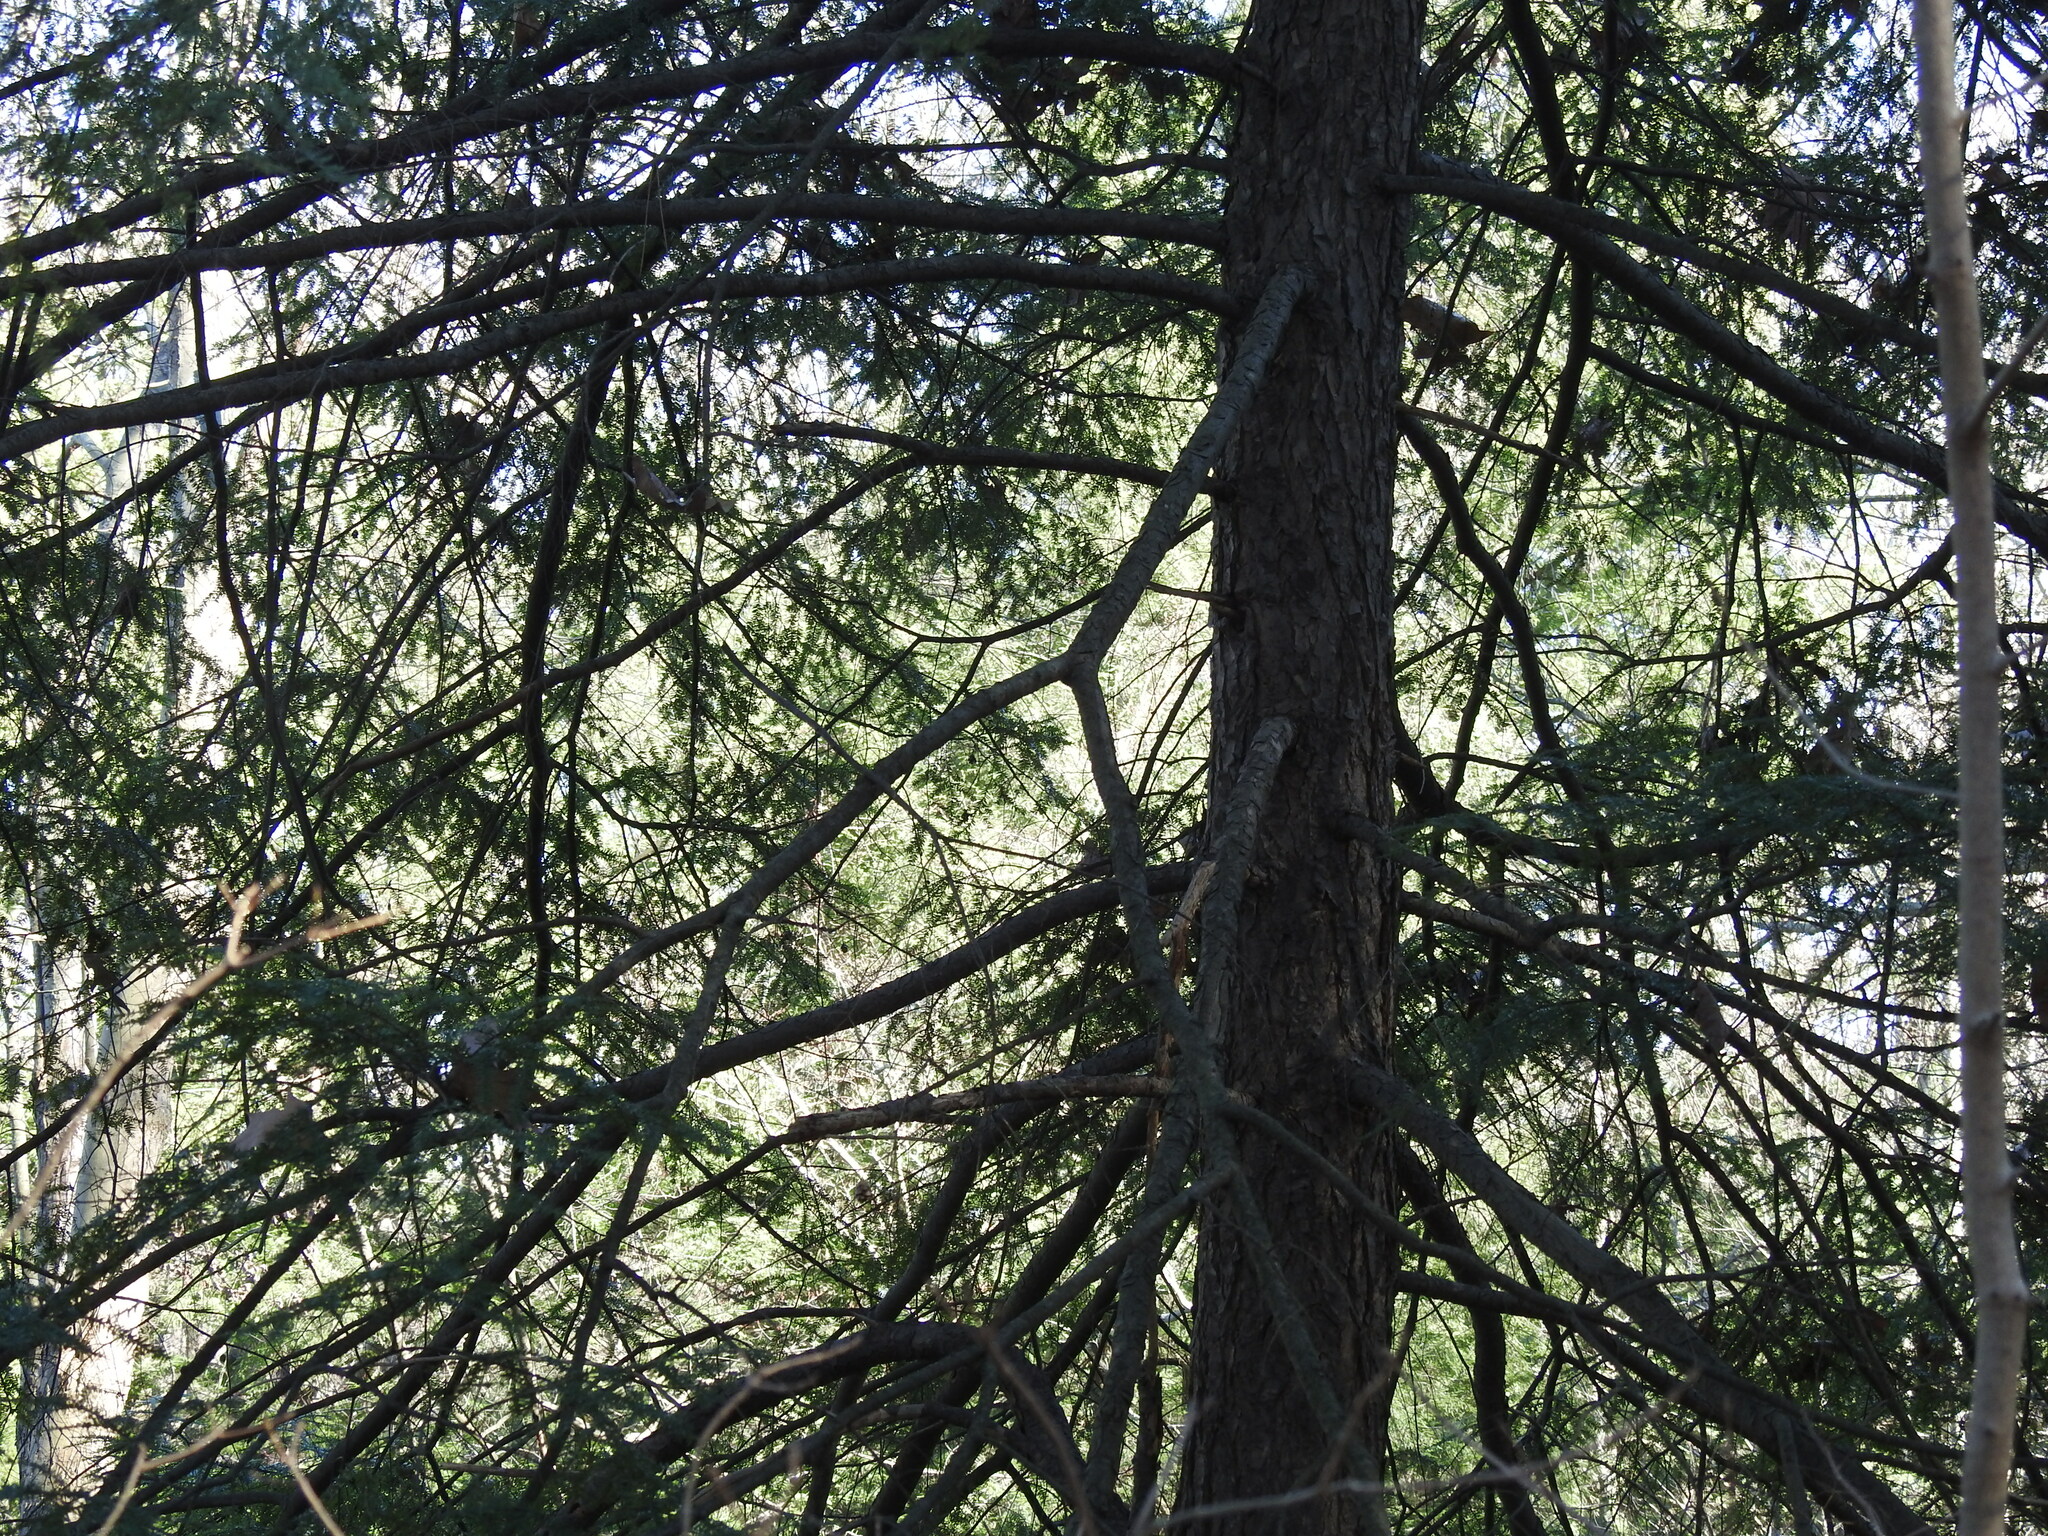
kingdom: Plantae
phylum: Tracheophyta
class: Pinopsida
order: Pinales
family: Pinaceae
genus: Tsuga
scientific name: Tsuga canadensis
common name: Eastern hemlock
